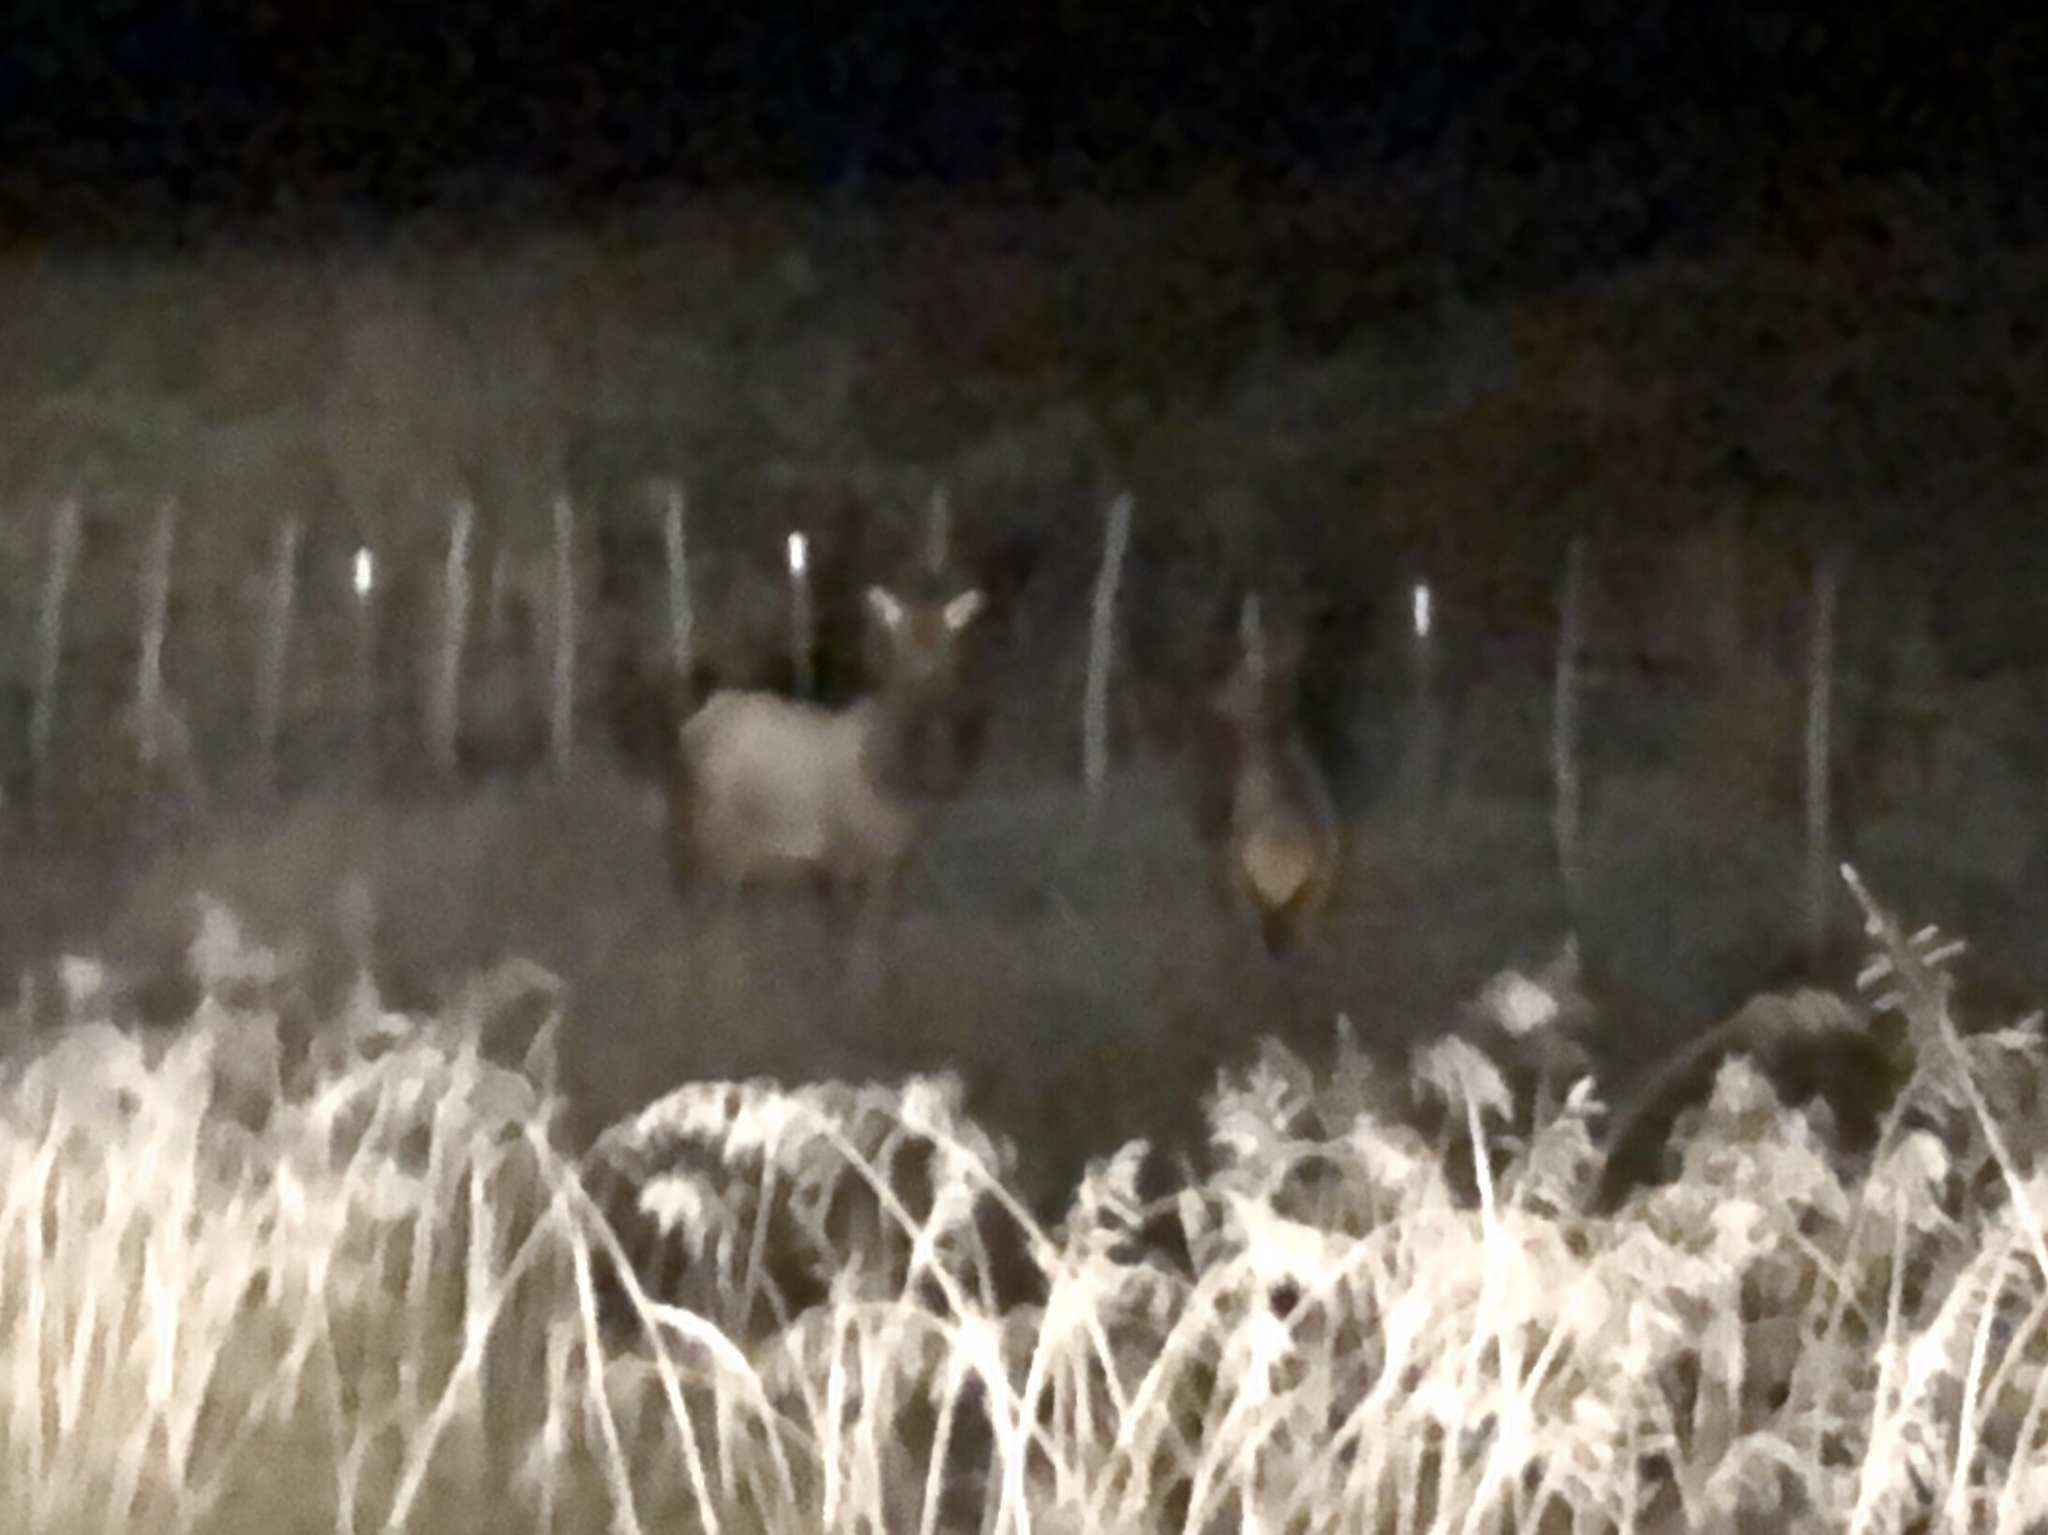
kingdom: Animalia
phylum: Chordata
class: Mammalia
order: Artiodactyla
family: Cervidae
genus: Cervus
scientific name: Cervus elaphus
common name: Red deer
